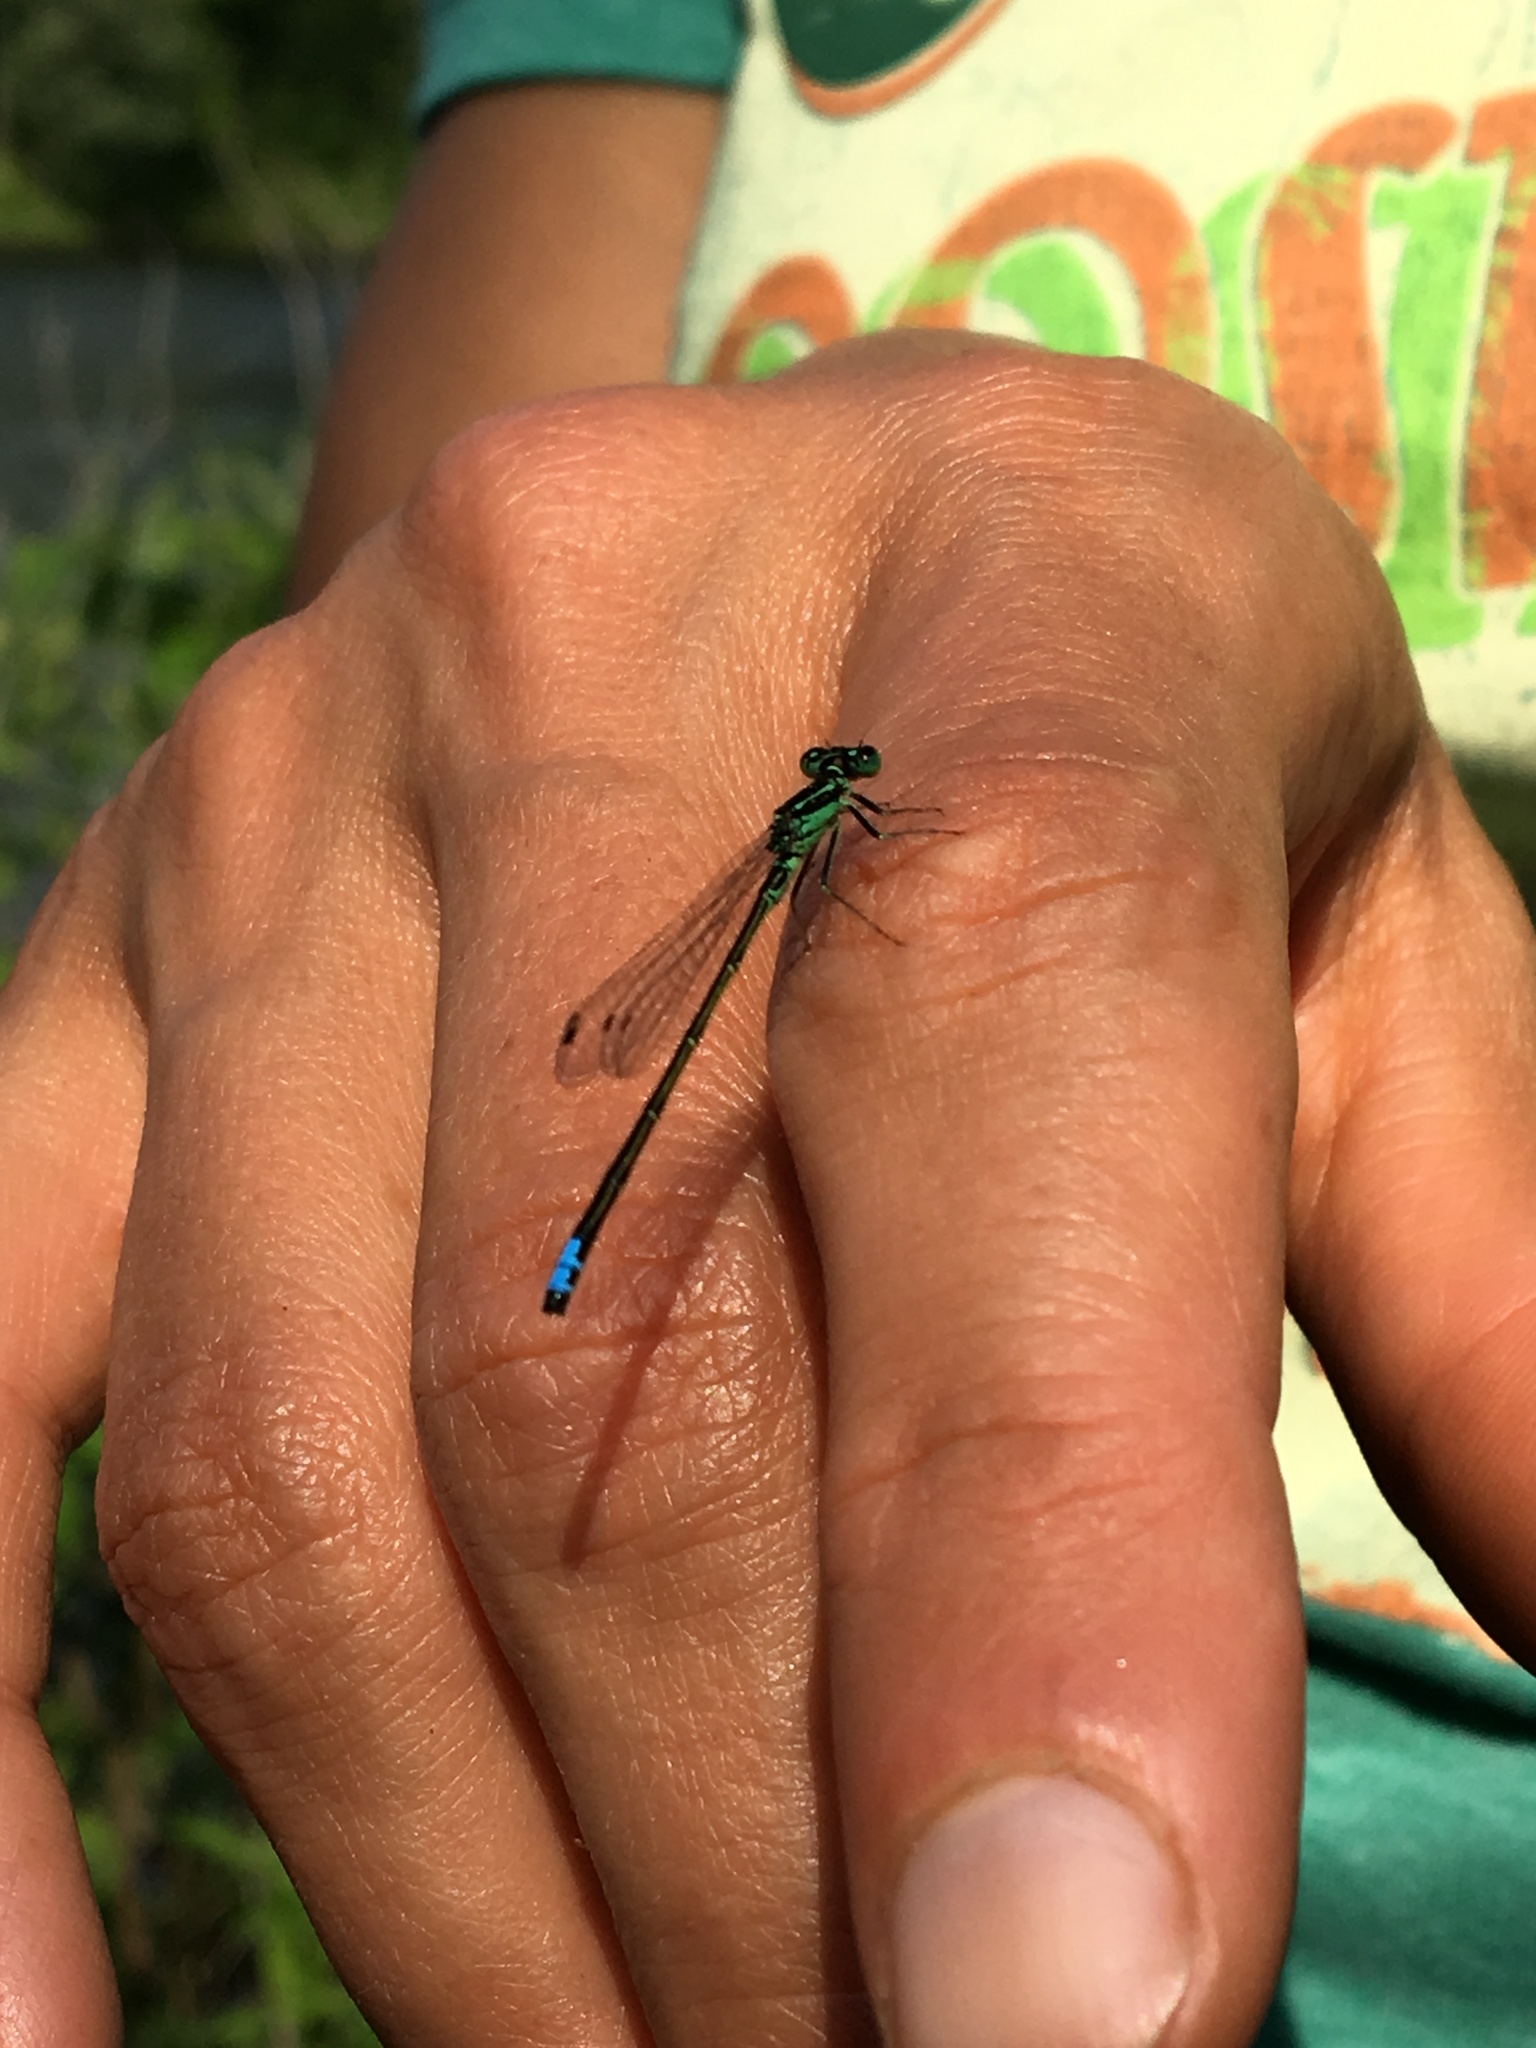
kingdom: Animalia
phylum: Arthropoda
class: Insecta
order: Odonata
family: Coenagrionidae
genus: Ischnura
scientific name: Ischnura verticalis
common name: Eastern forktail
